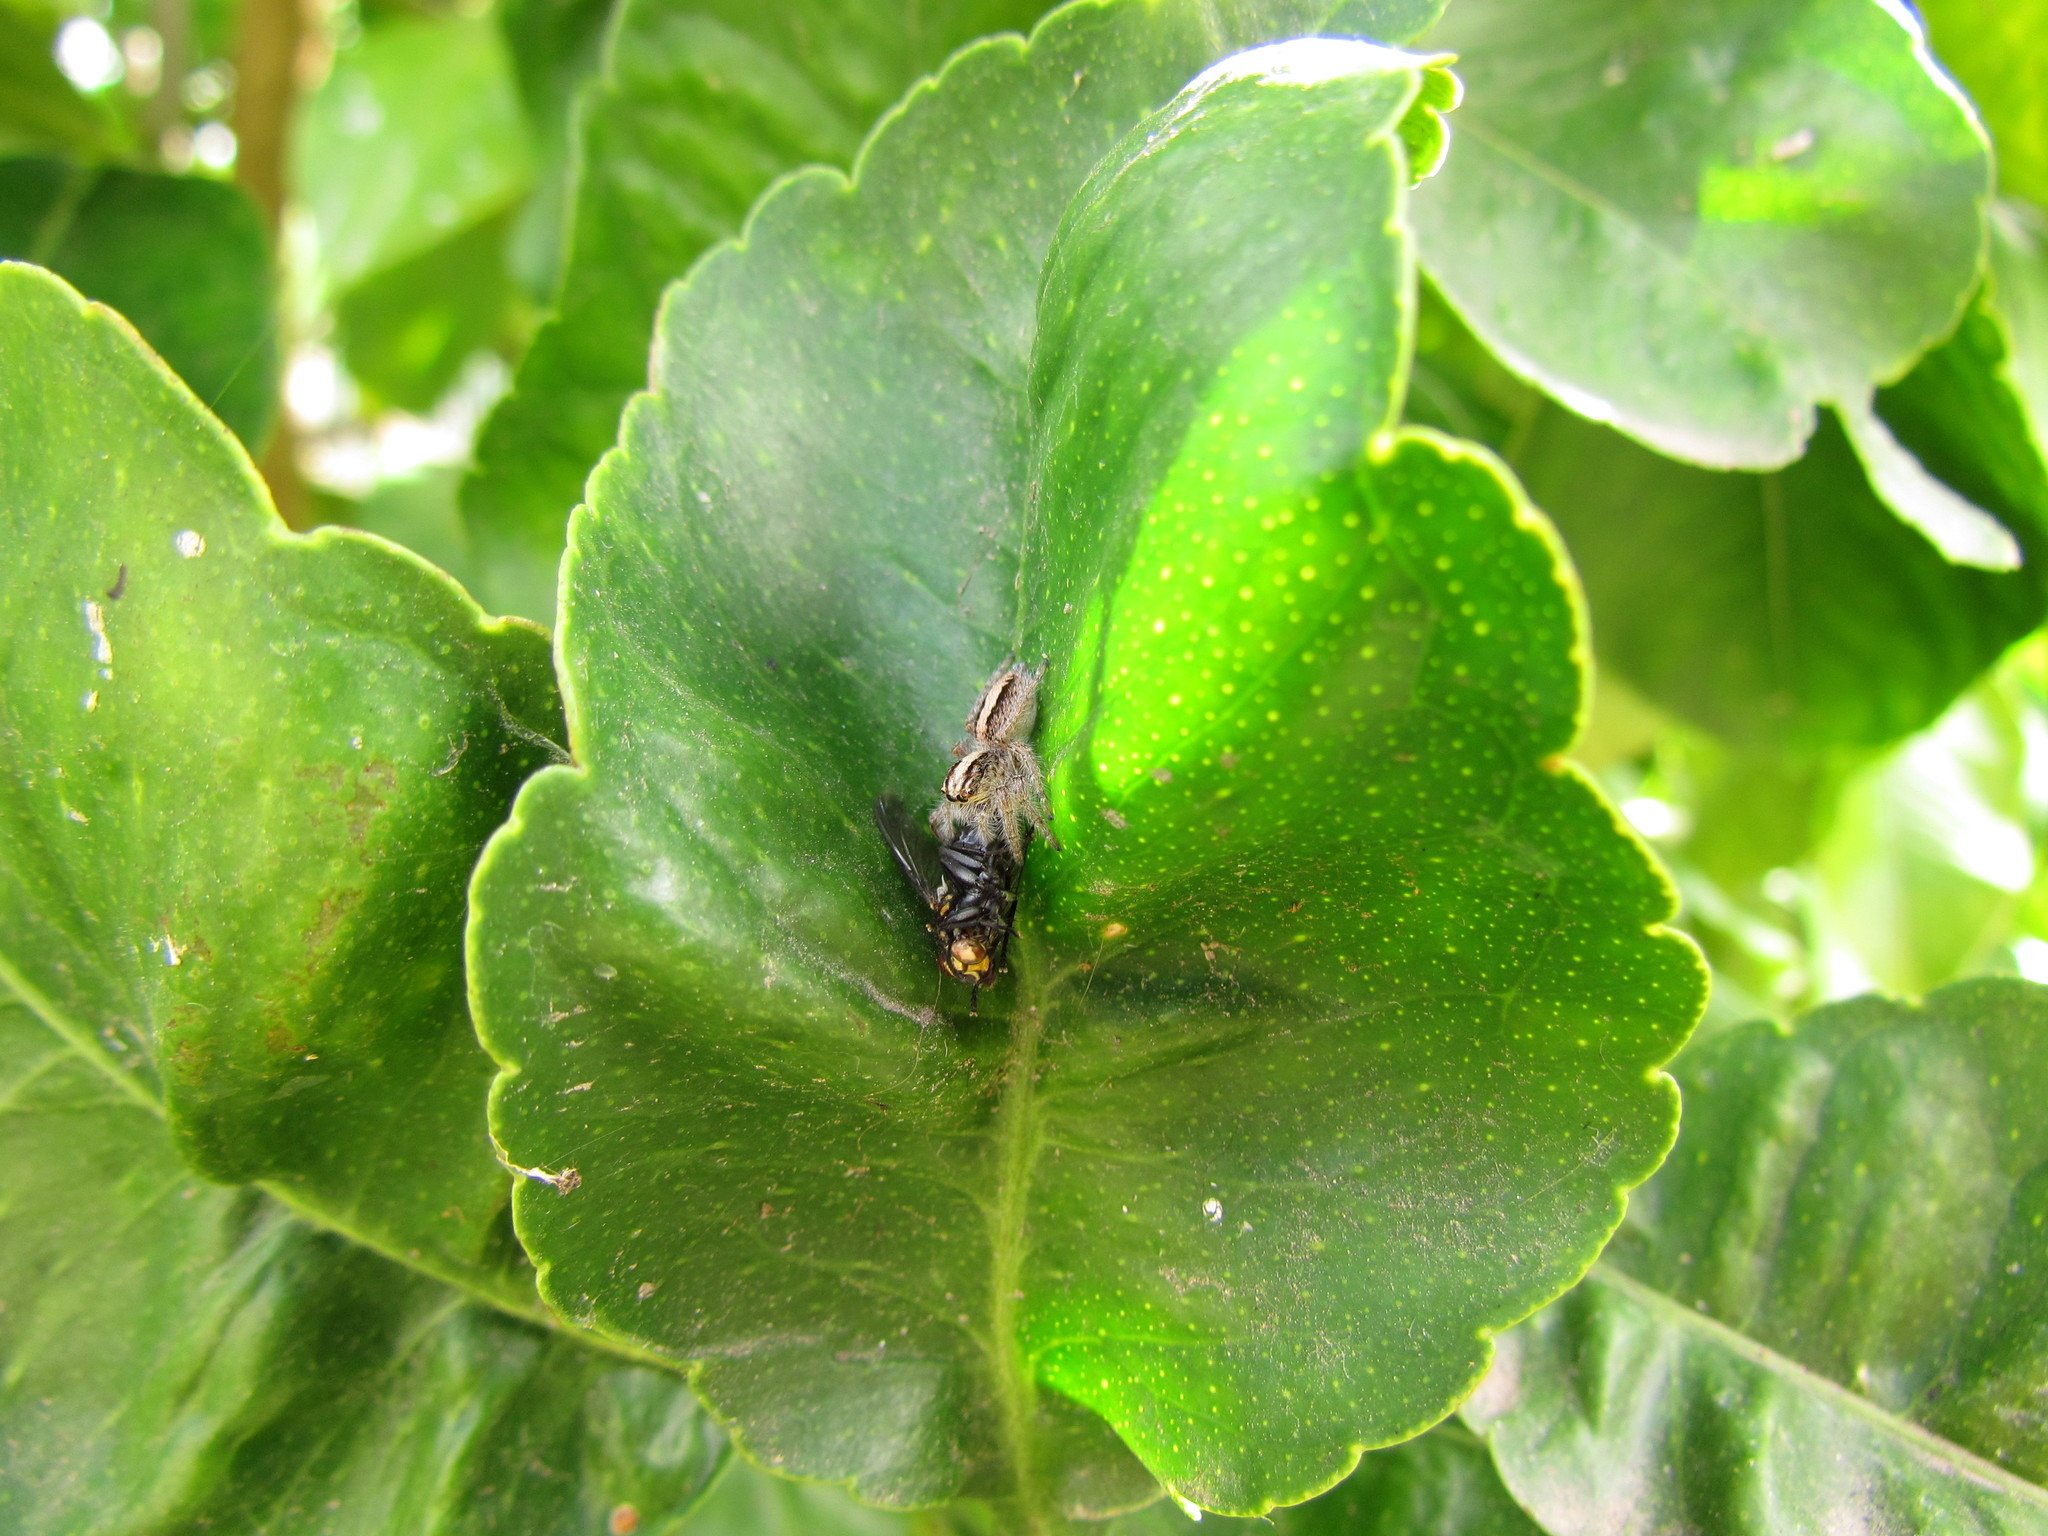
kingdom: Animalia
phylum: Arthropoda
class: Arachnida
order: Araneae
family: Salticidae
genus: Megafreya
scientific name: Megafreya sutrix
